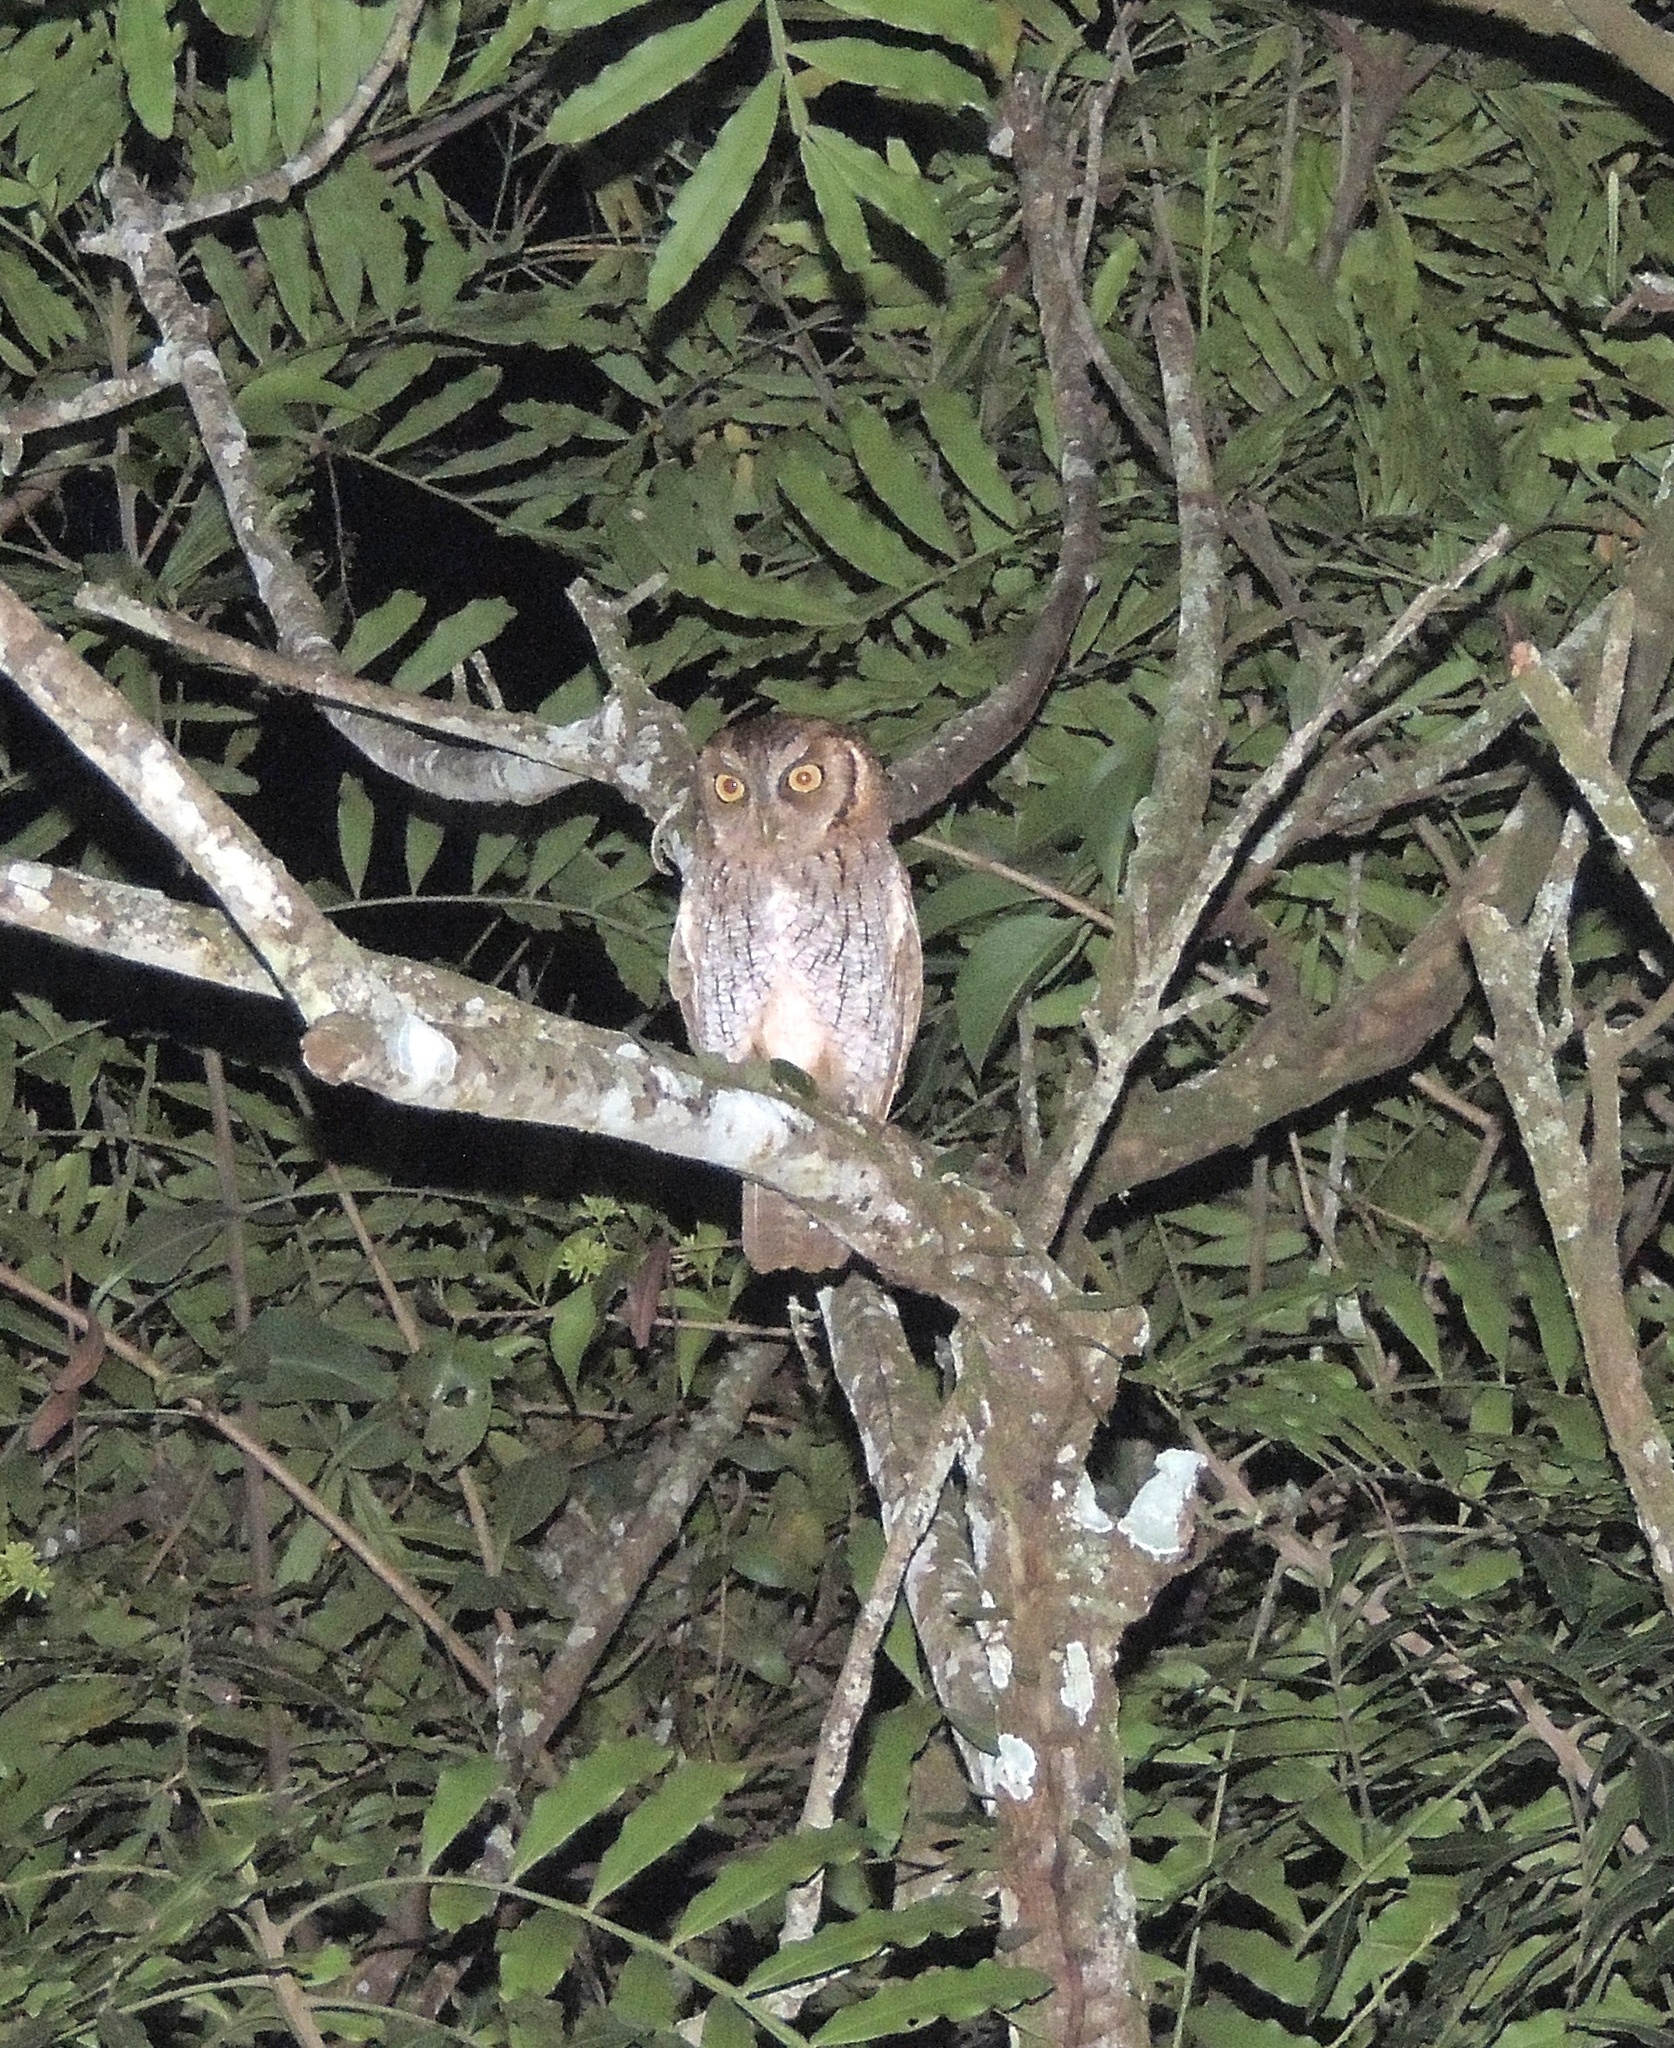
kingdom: Animalia
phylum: Chordata
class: Aves
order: Strigiformes
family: Strigidae
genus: Megascops
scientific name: Megascops choliba
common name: Tropical screech-owl
